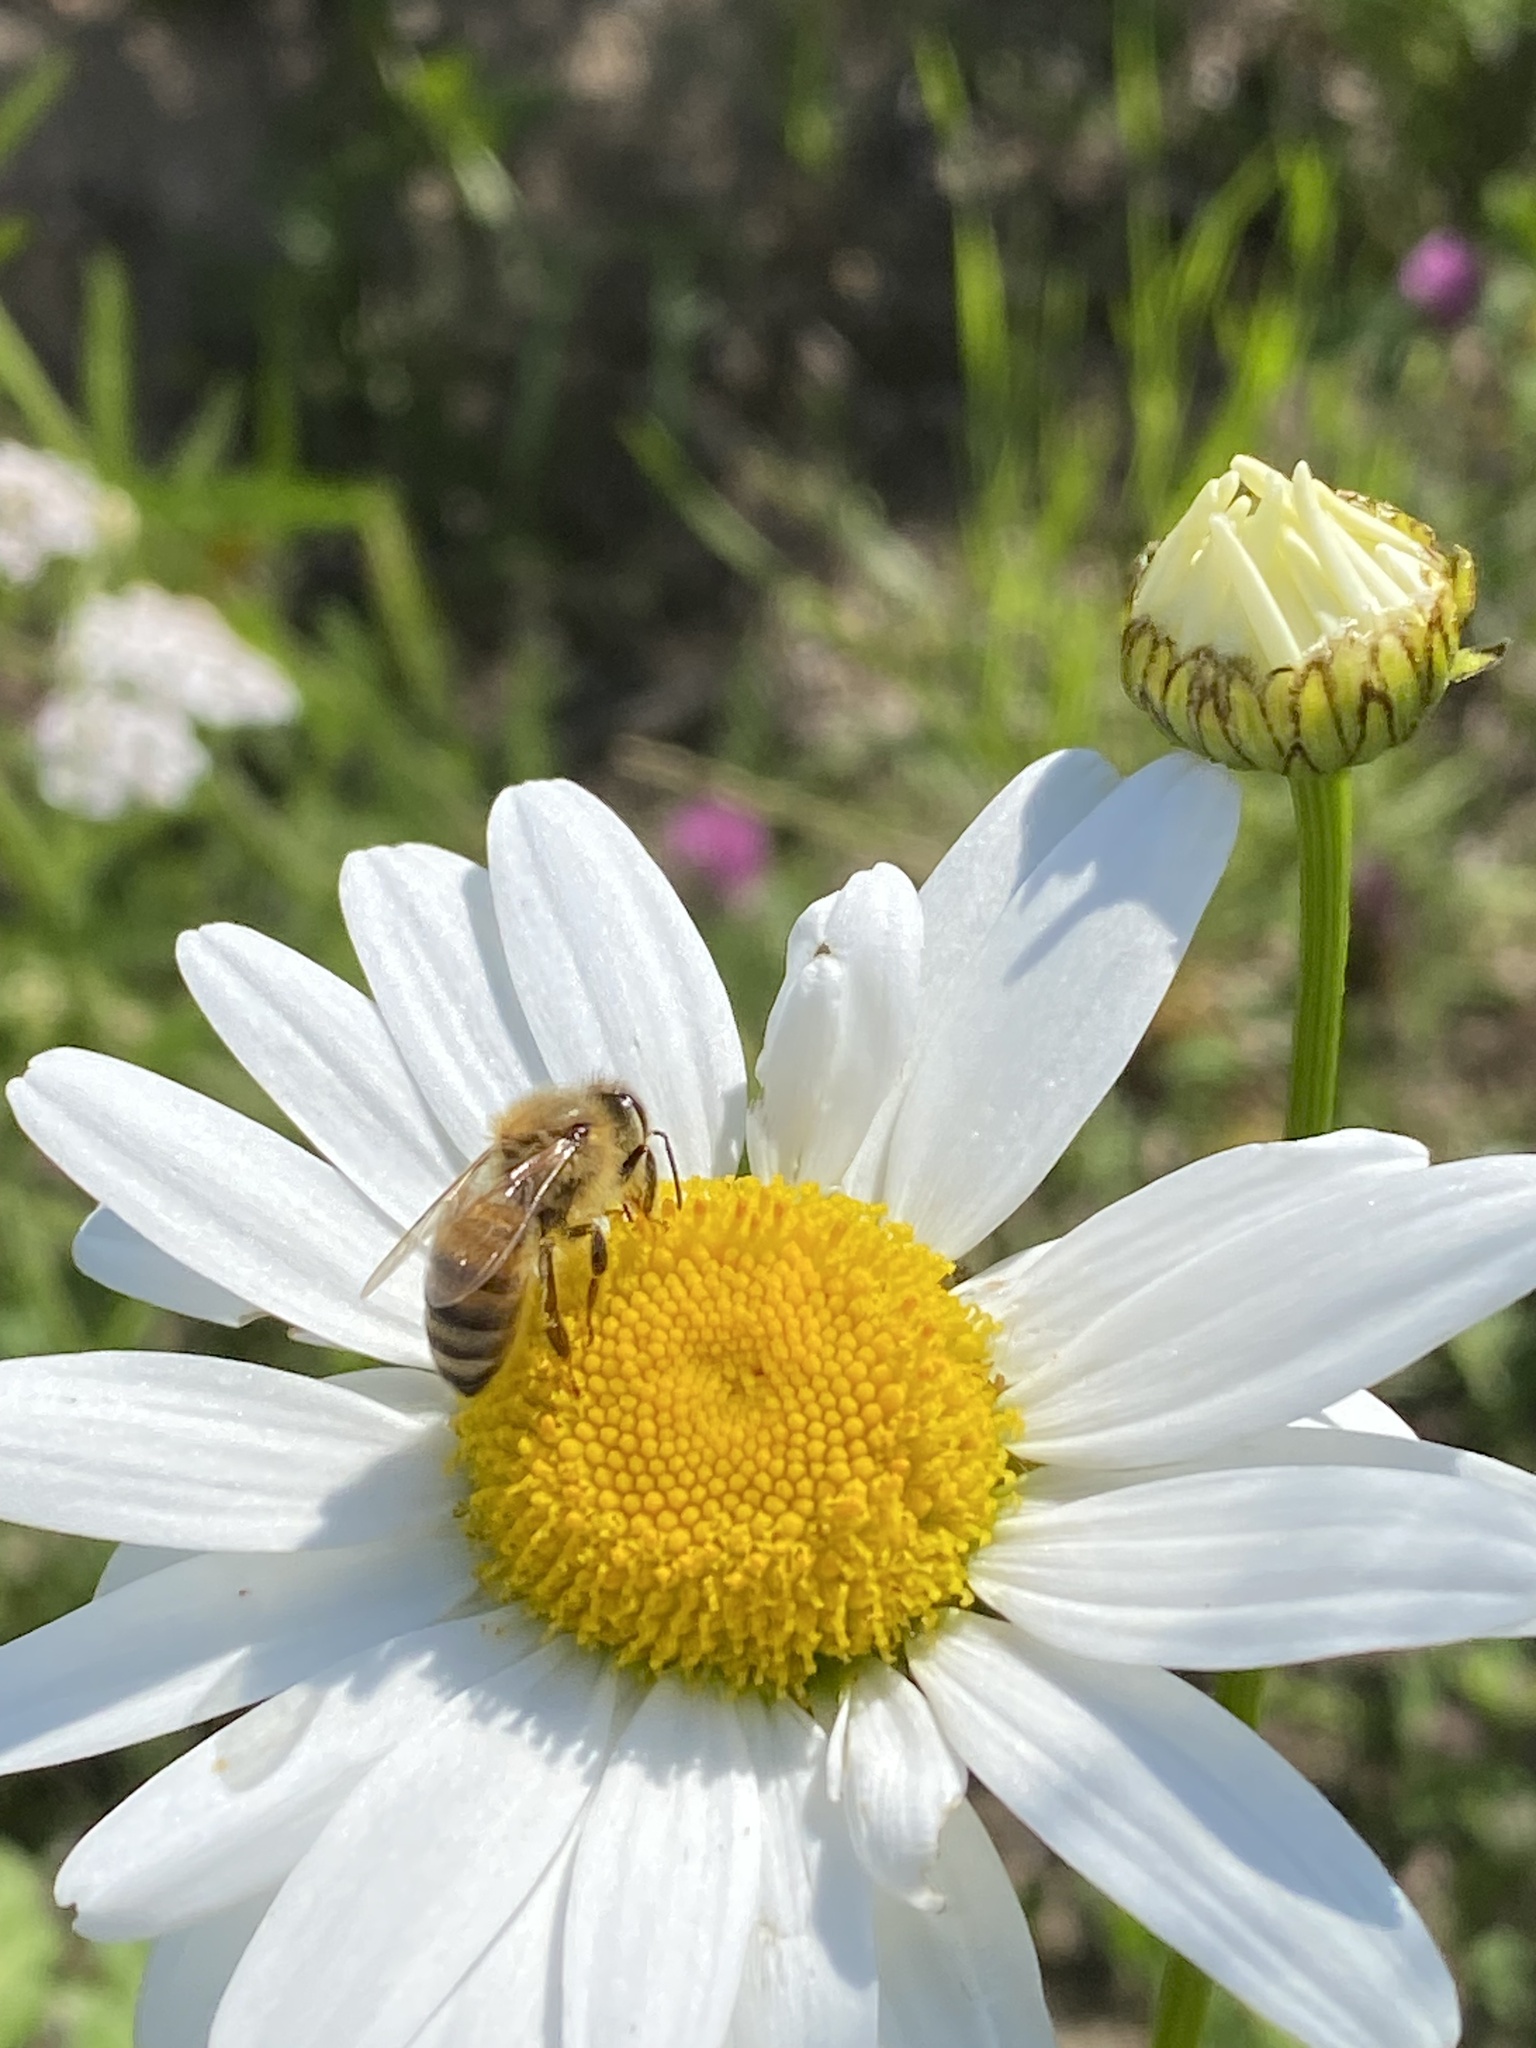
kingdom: Animalia
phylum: Arthropoda
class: Insecta
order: Hymenoptera
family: Apidae
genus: Apis
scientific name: Apis mellifera
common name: Honey bee
